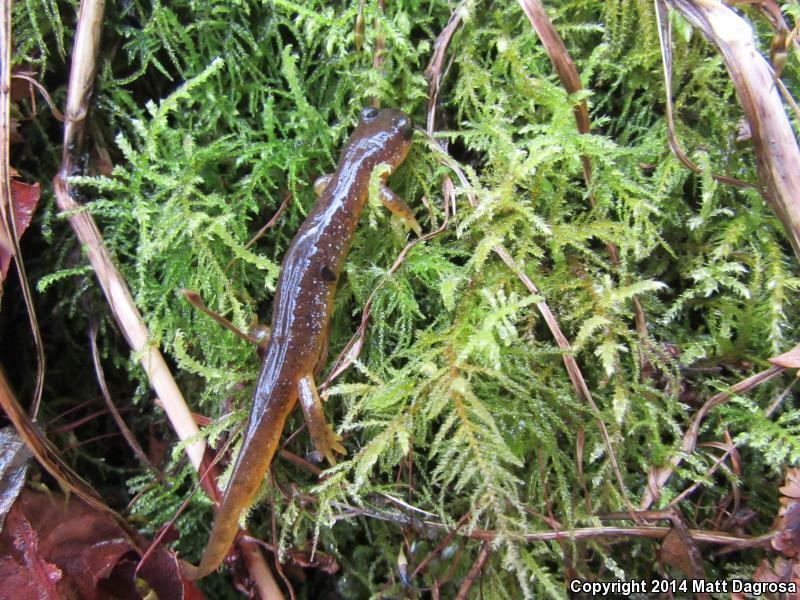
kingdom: Animalia
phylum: Chordata
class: Amphibia
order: Caudata
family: Rhyacotritonidae
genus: Rhyacotriton
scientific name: Rhyacotriton kezeri
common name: Columbia torrent salamander
